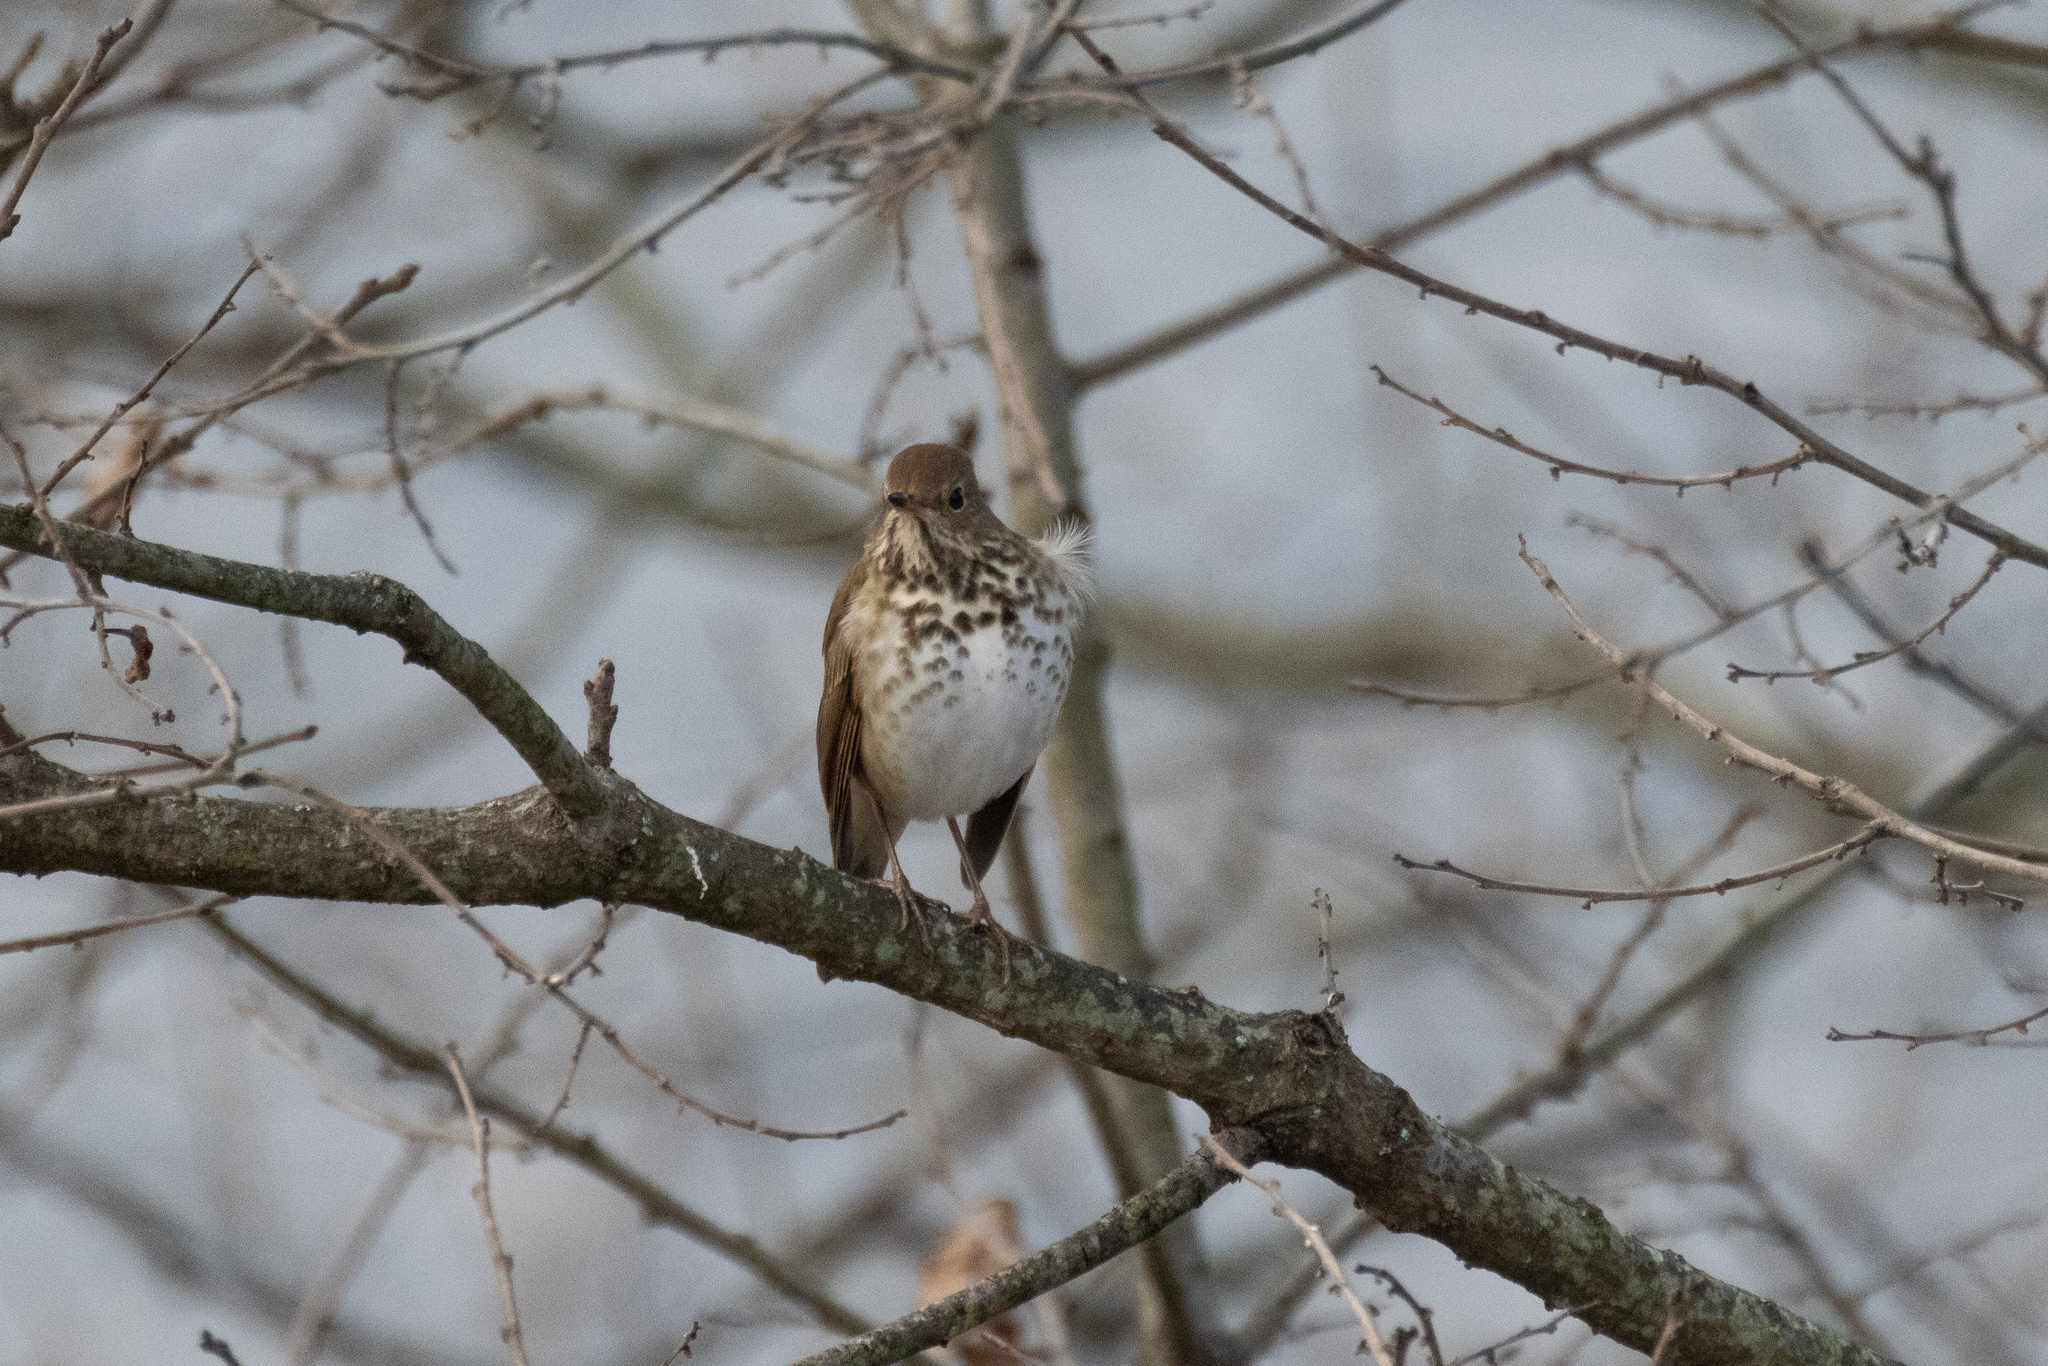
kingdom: Animalia
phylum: Chordata
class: Aves
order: Passeriformes
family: Turdidae
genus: Catharus
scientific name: Catharus guttatus
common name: Hermit thrush
